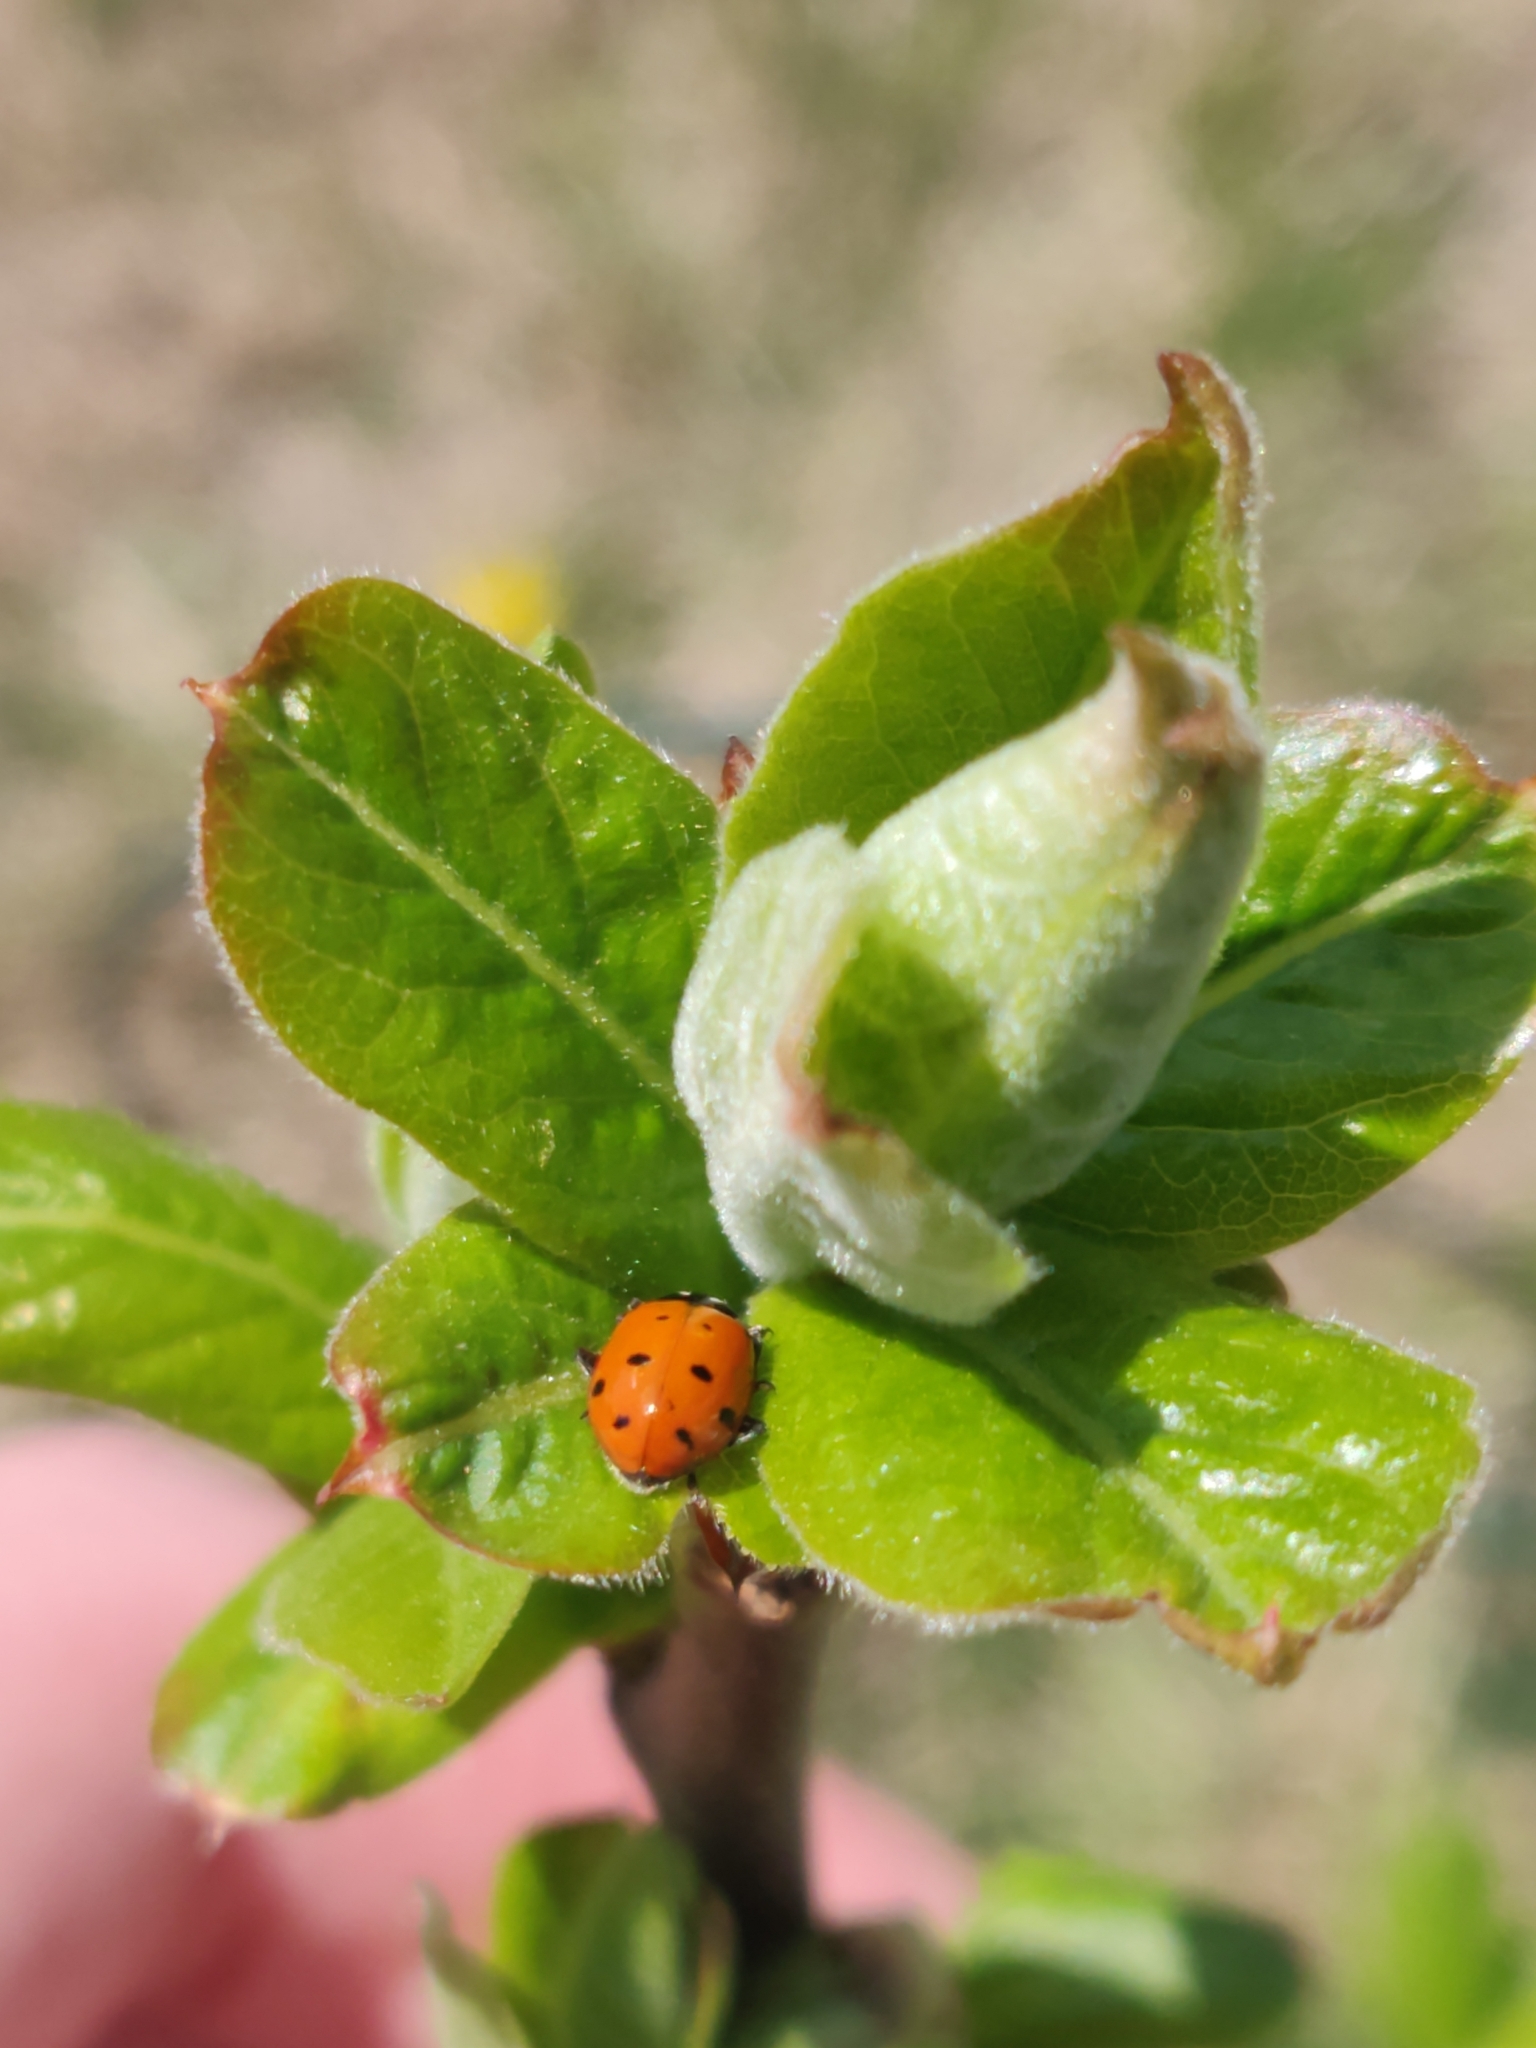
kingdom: Animalia
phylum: Arthropoda
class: Insecta
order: Coleoptera
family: Coccinellidae
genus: Hippodamia
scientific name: Hippodamia convergens
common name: Convergent lady beetle
